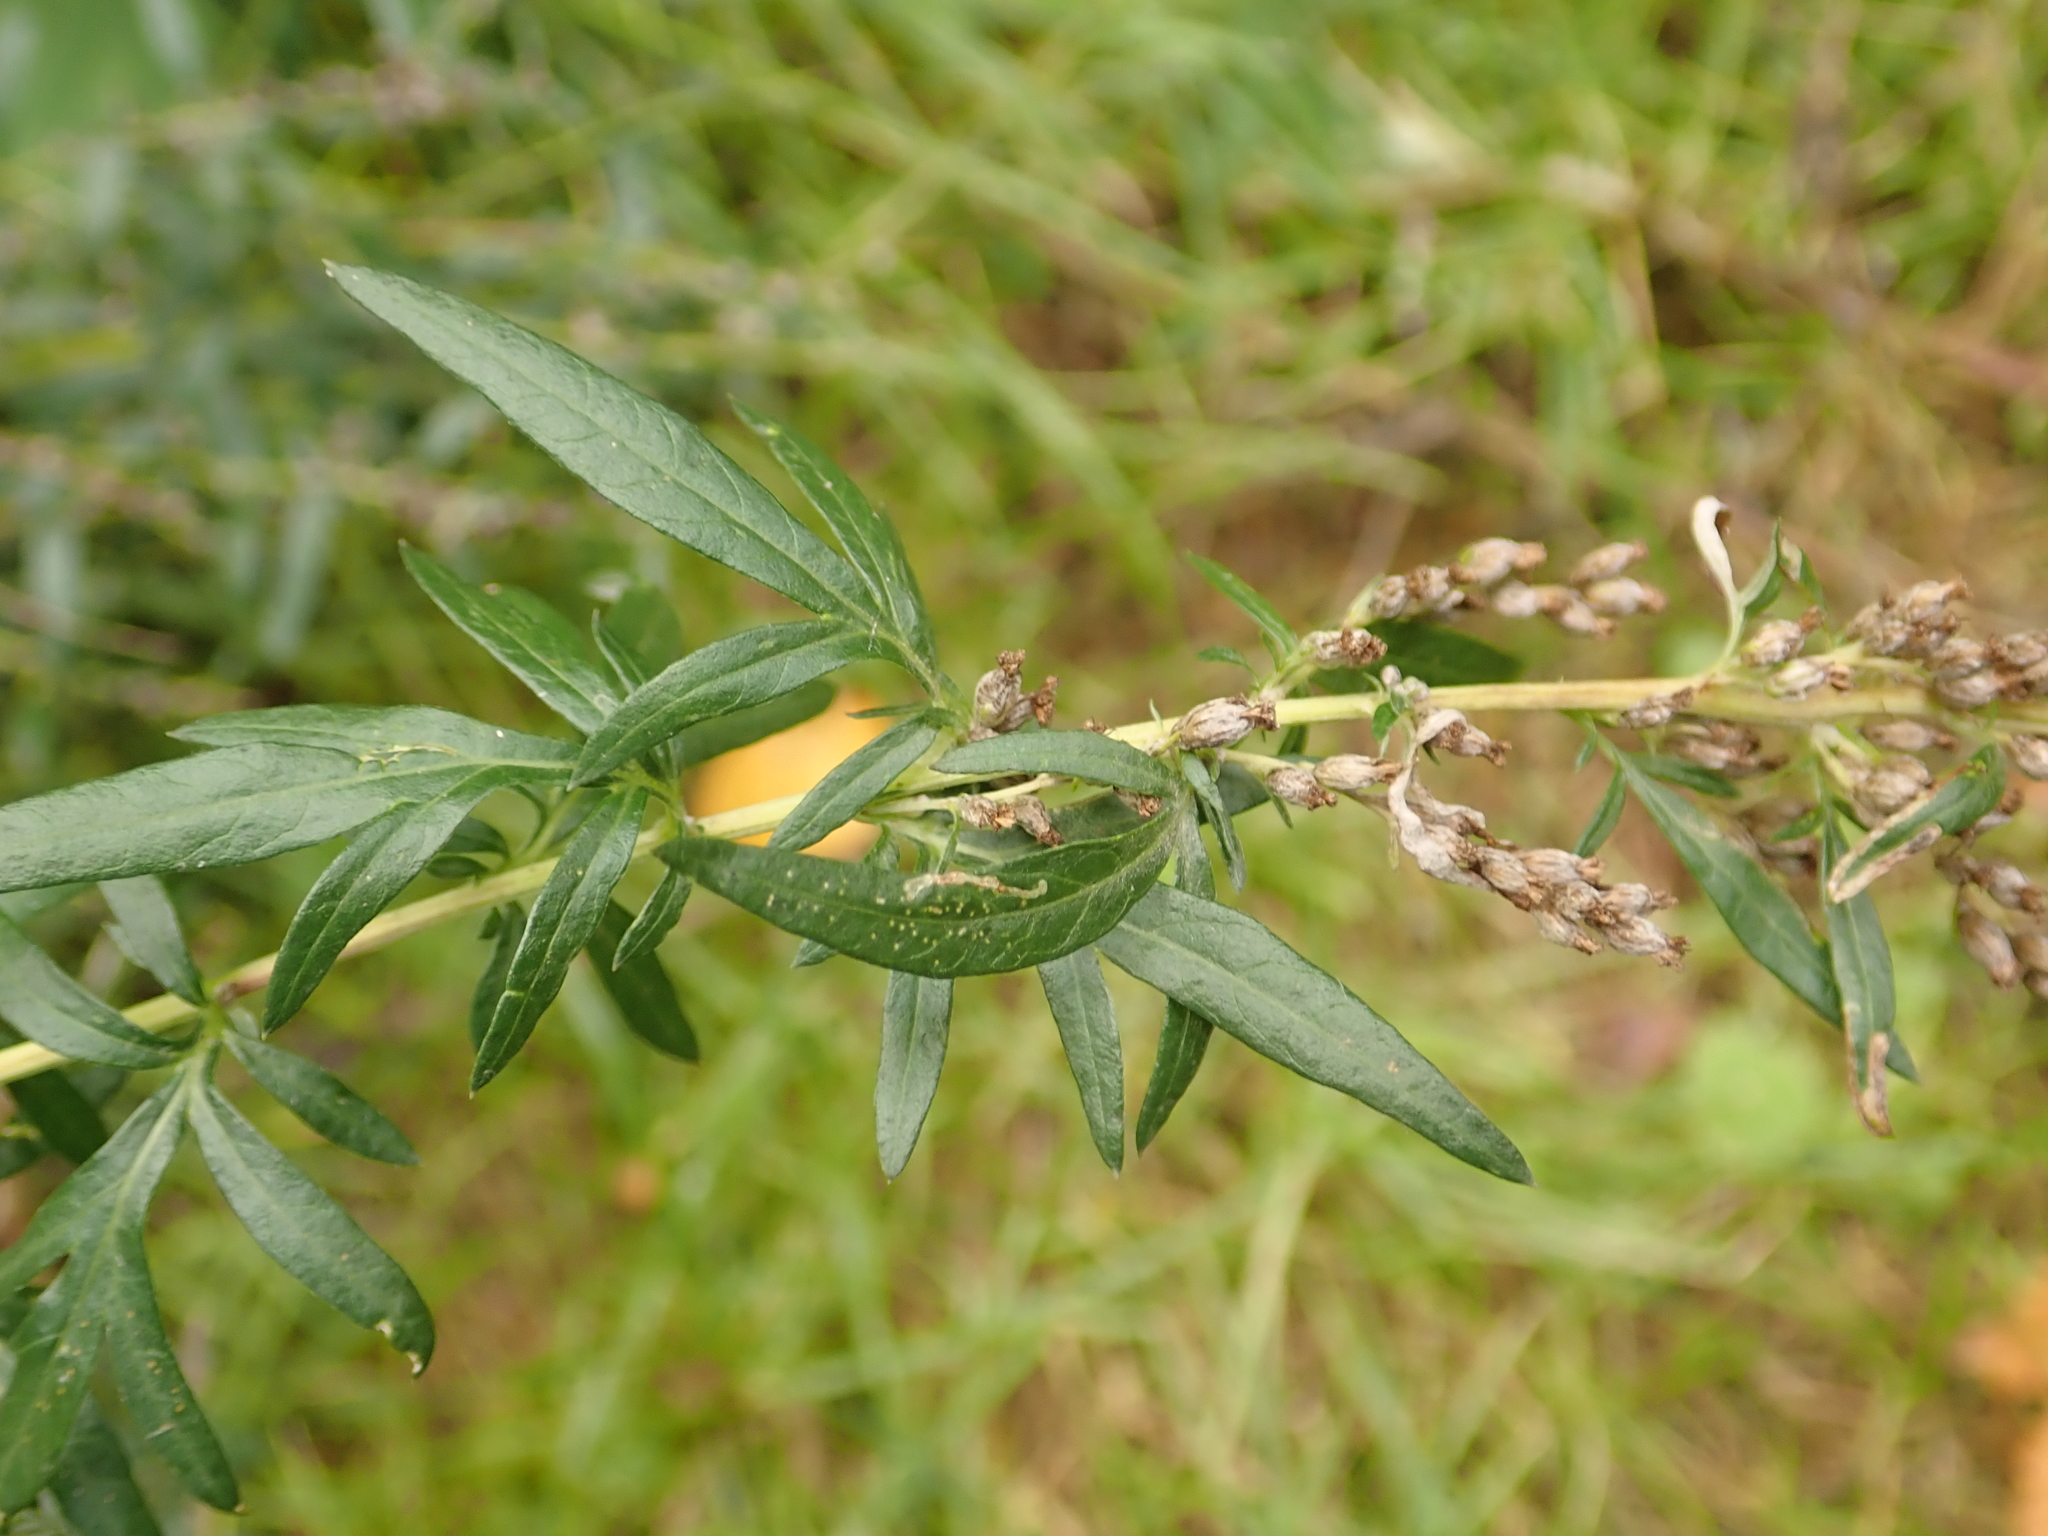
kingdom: Plantae
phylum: Tracheophyta
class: Magnoliopsida
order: Asterales
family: Asteraceae
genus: Artemisia
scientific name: Artemisia vulgaris
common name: Mugwort
